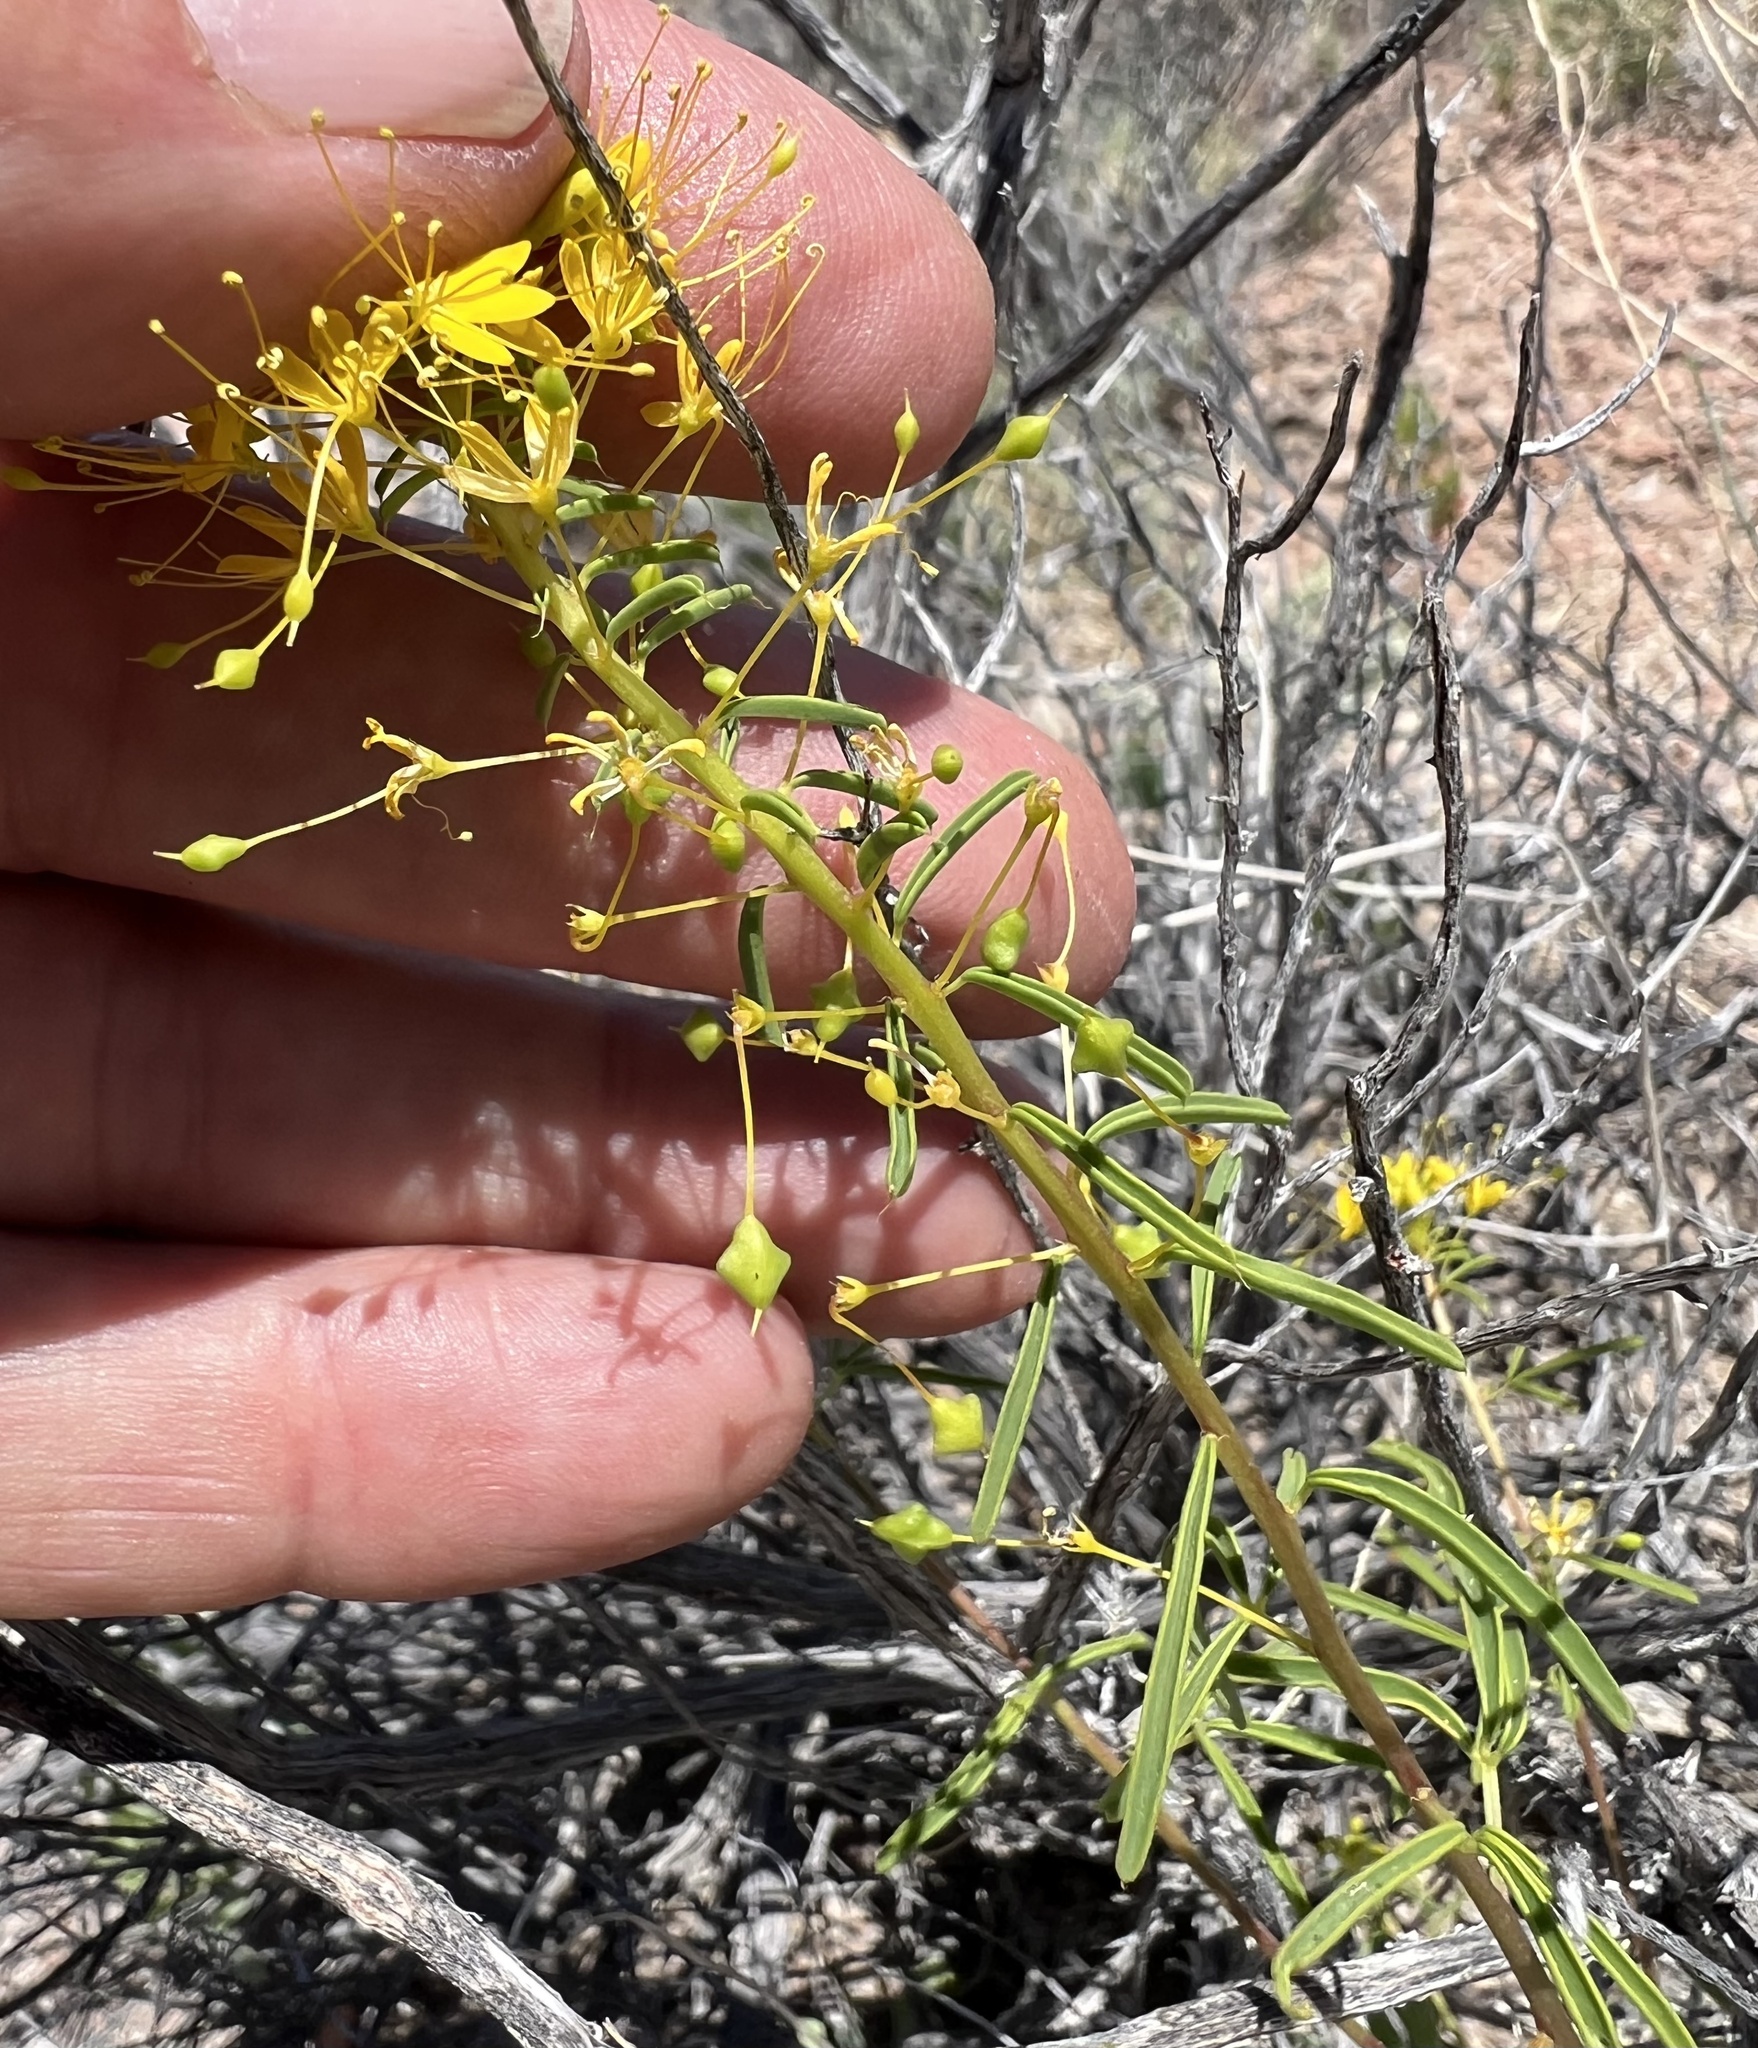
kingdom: Plantae
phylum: Tracheophyta
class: Magnoliopsida
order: Brassicales
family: Cleomaceae
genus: Cleomella
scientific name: Cleomella plocasperma
